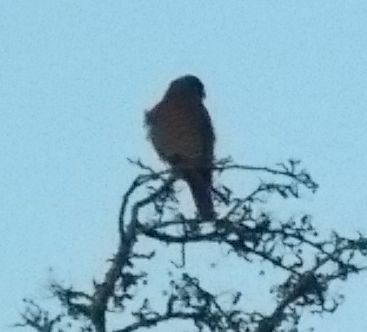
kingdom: Animalia
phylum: Chordata
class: Aves
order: Falconiformes
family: Falconidae
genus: Falco
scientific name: Falco tinnunculus
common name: Common kestrel
